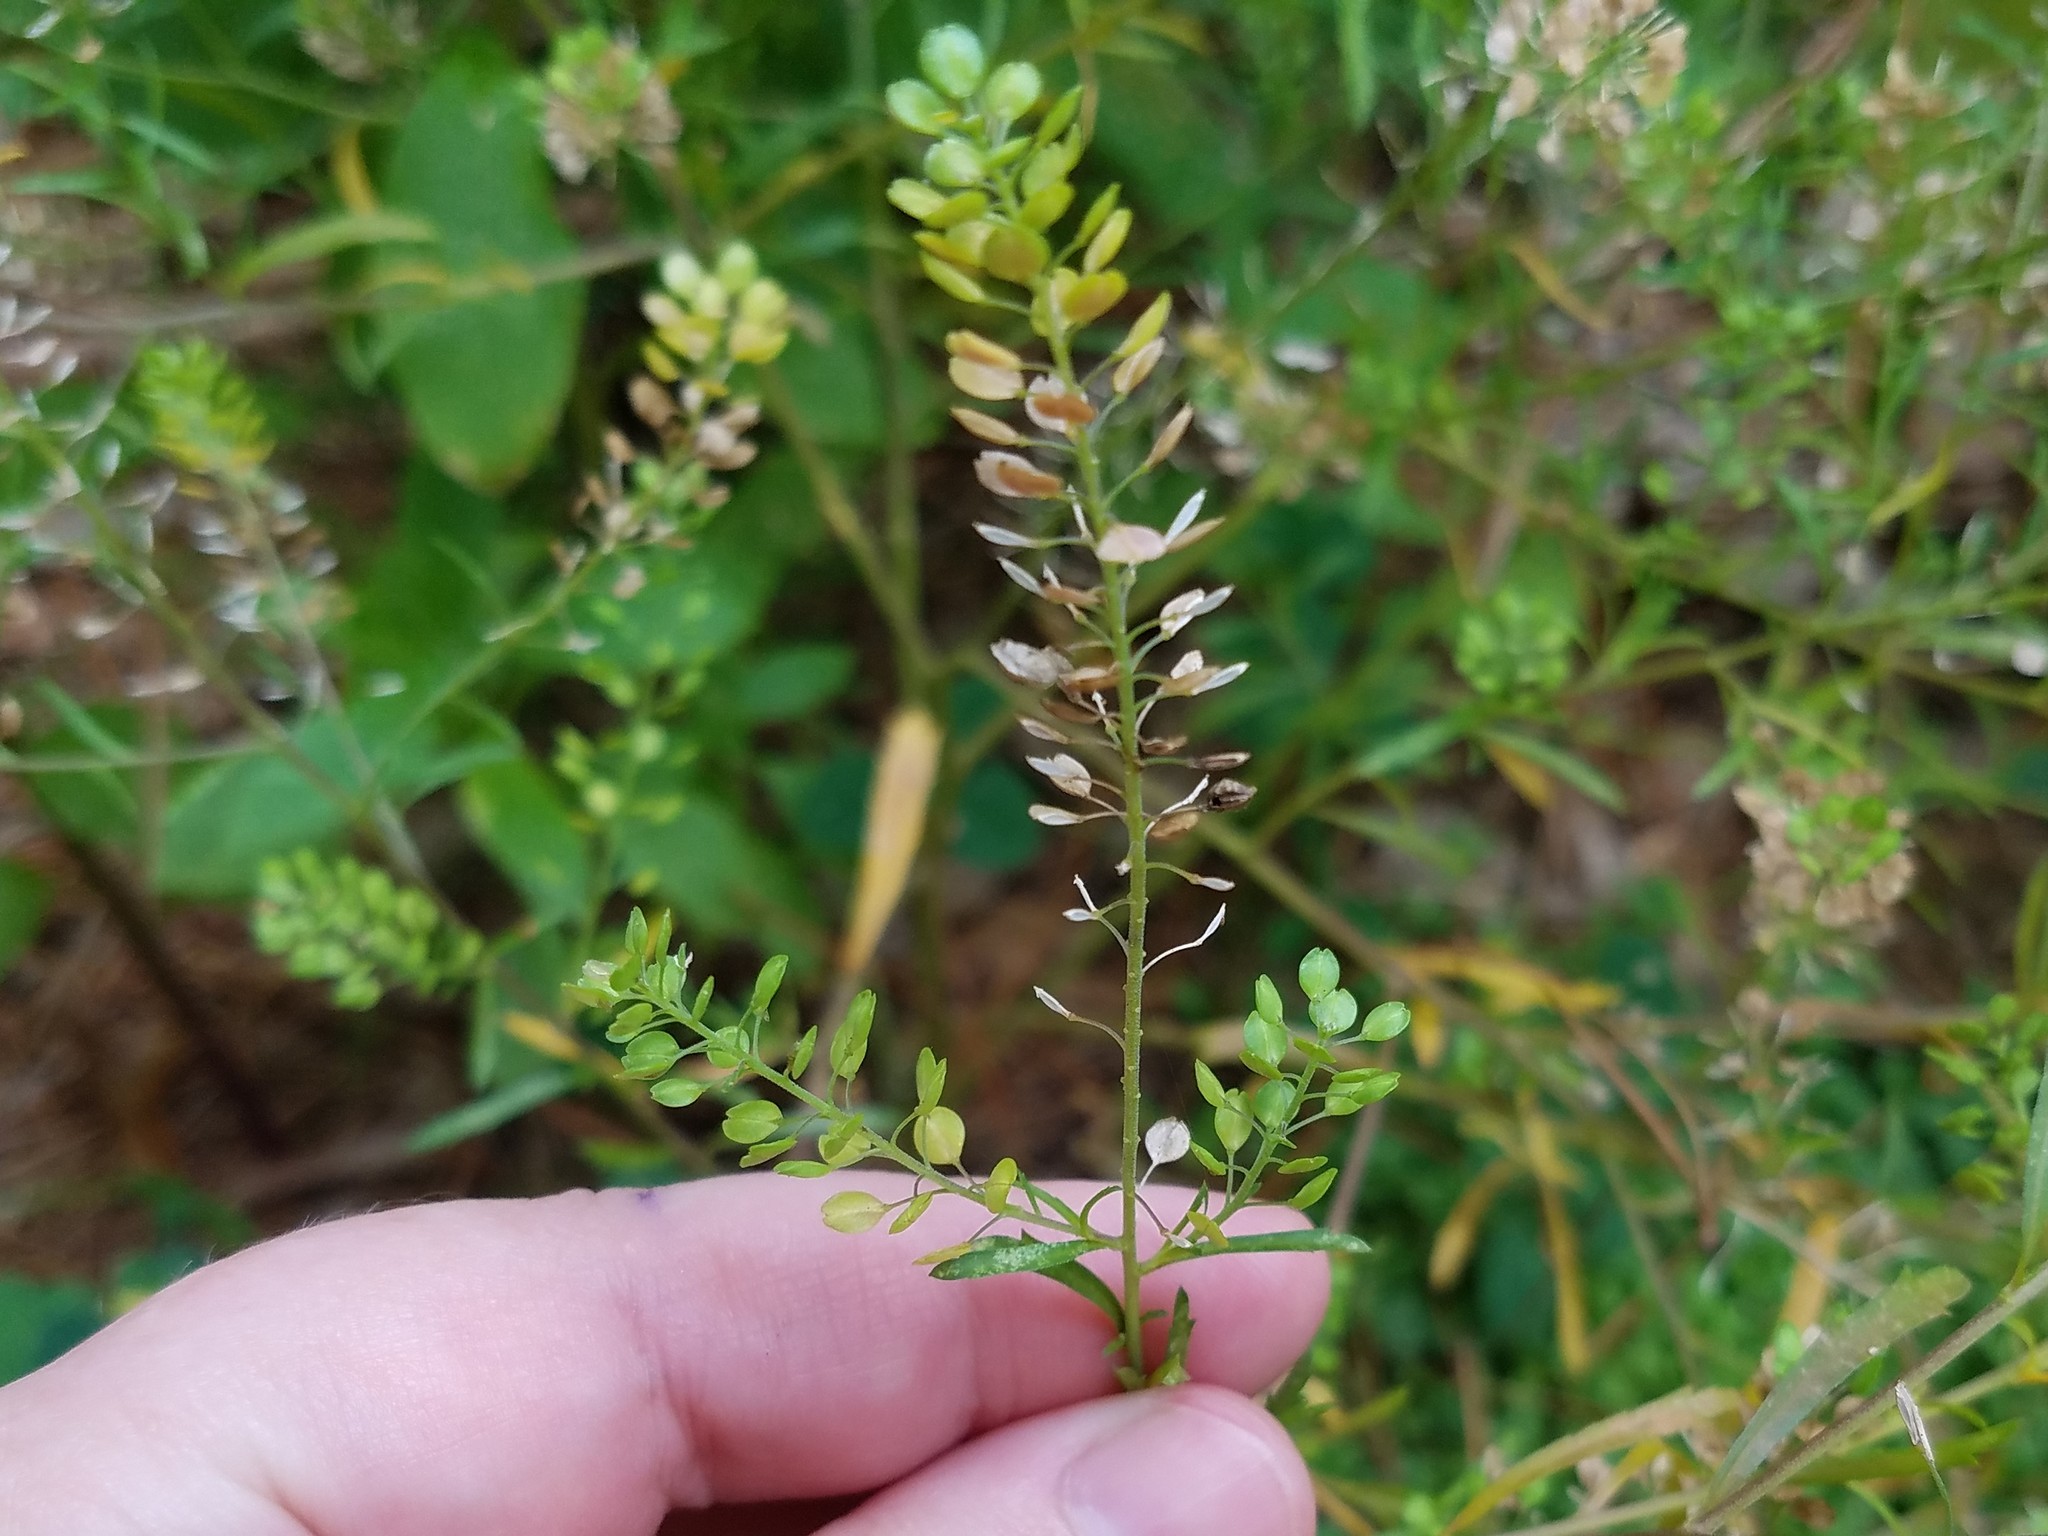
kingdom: Plantae
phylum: Tracheophyta
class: Magnoliopsida
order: Brassicales
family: Brassicaceae
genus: Lepidium
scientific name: Lepidium virginicum
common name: Least pepperwort
